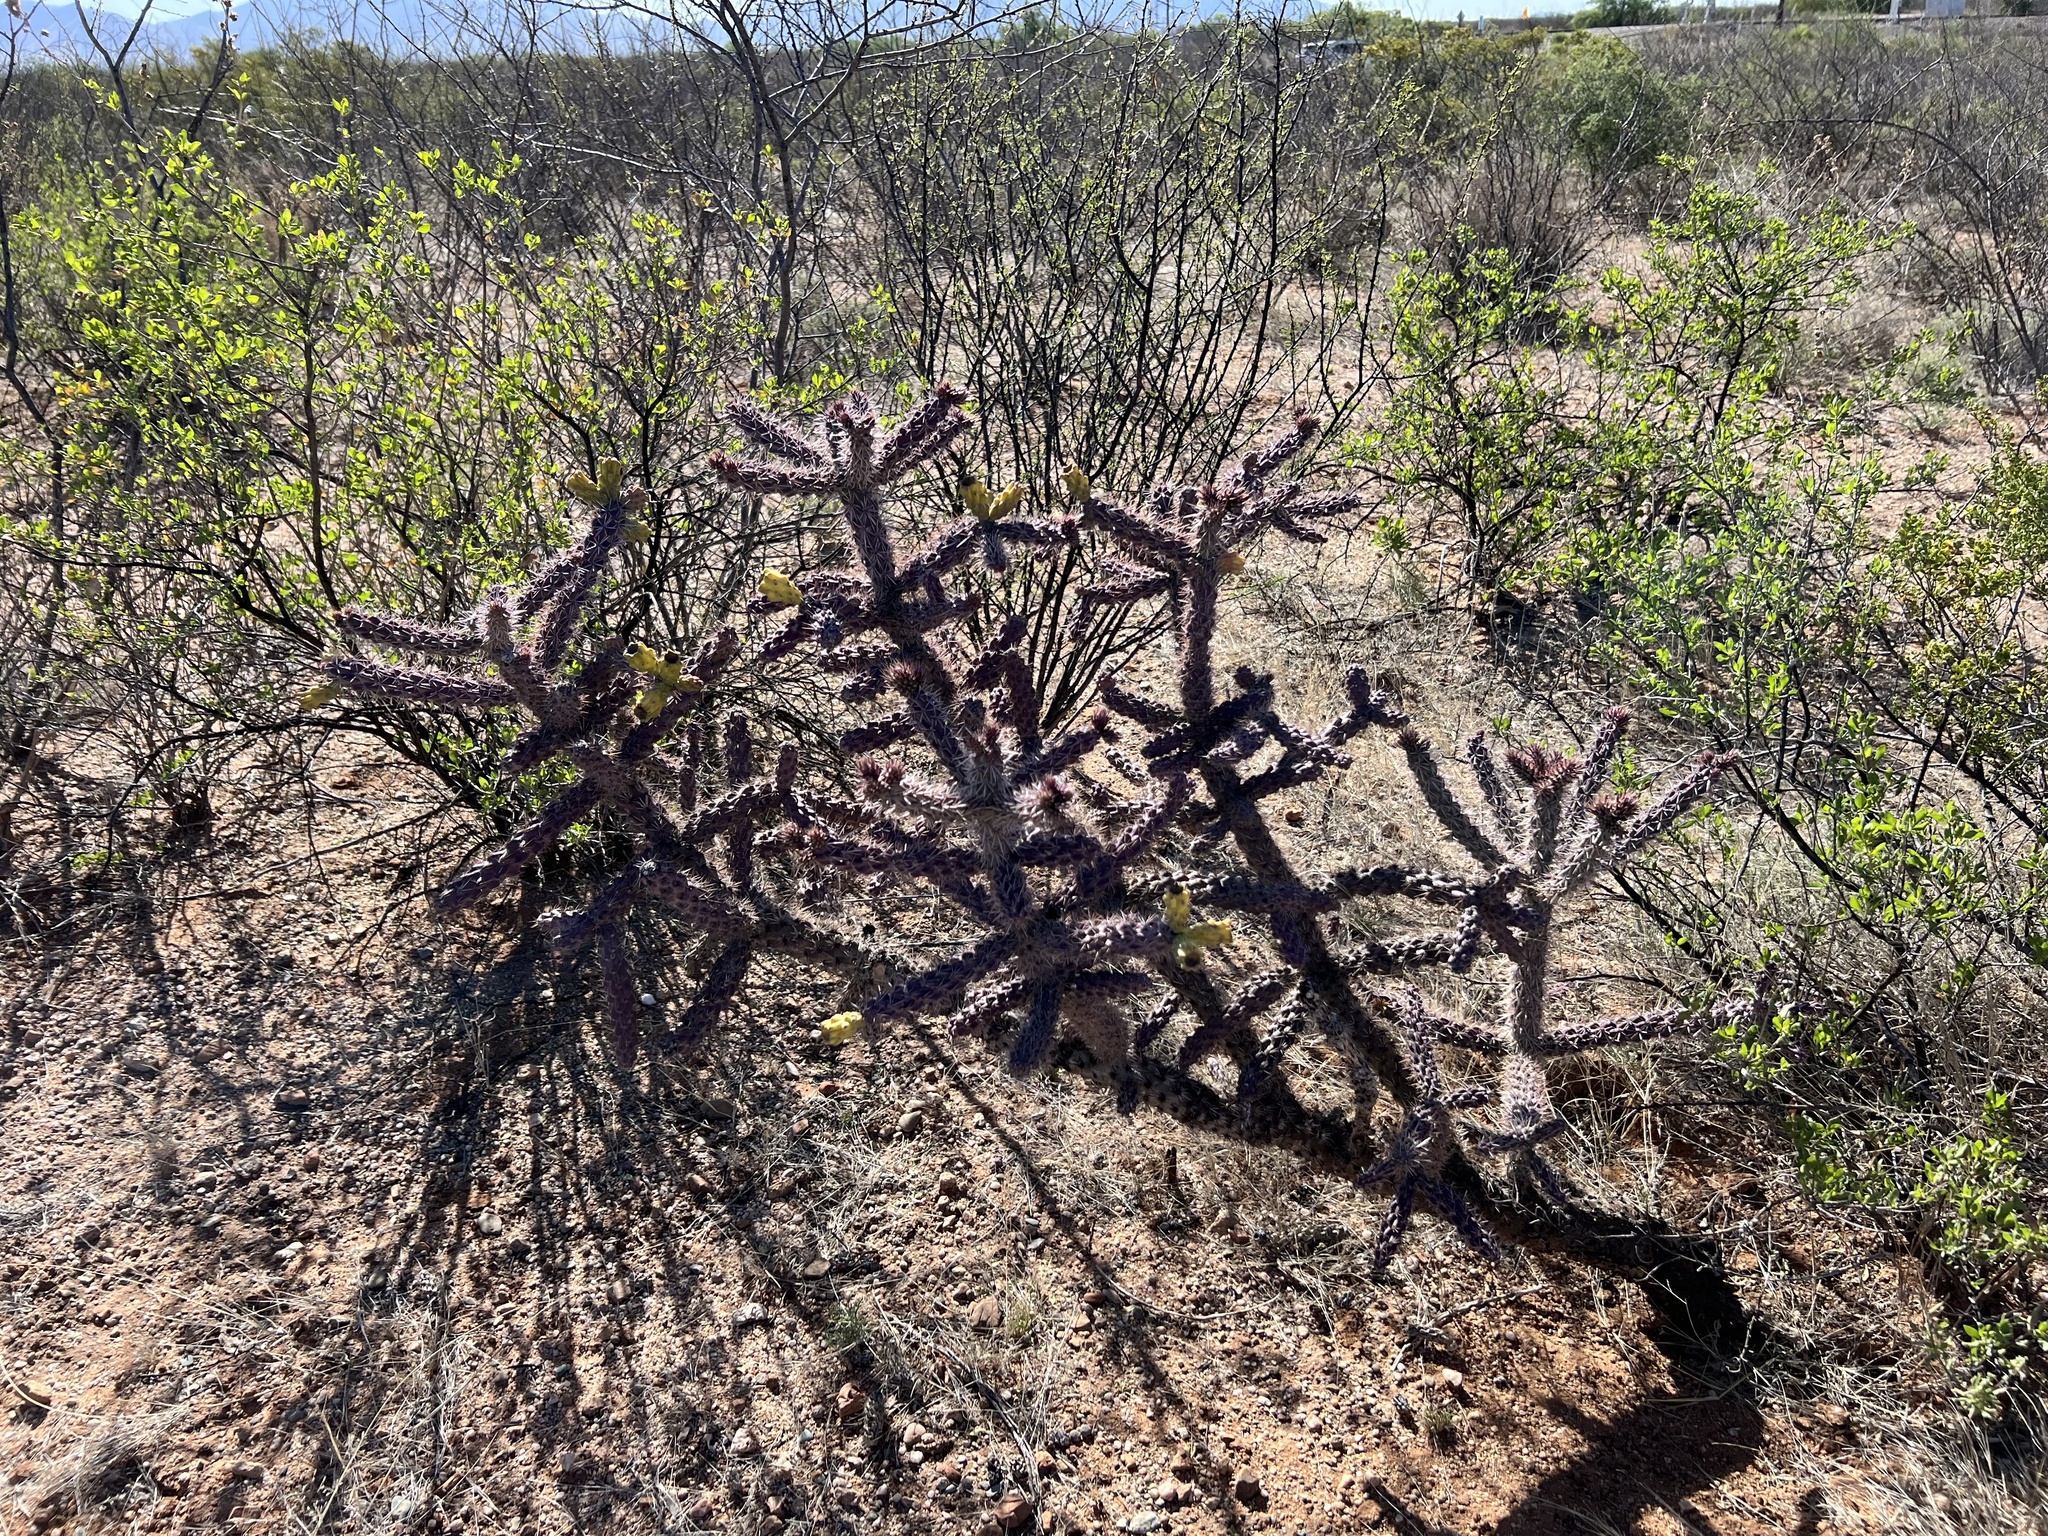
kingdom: Plantae
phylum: Tracheophyta
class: Magnoliopsida
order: Caryophyllales
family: Cactaceae
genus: Cylindropuntia
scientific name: Cylindropuntia imbricata
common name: Candelabrum cactus
